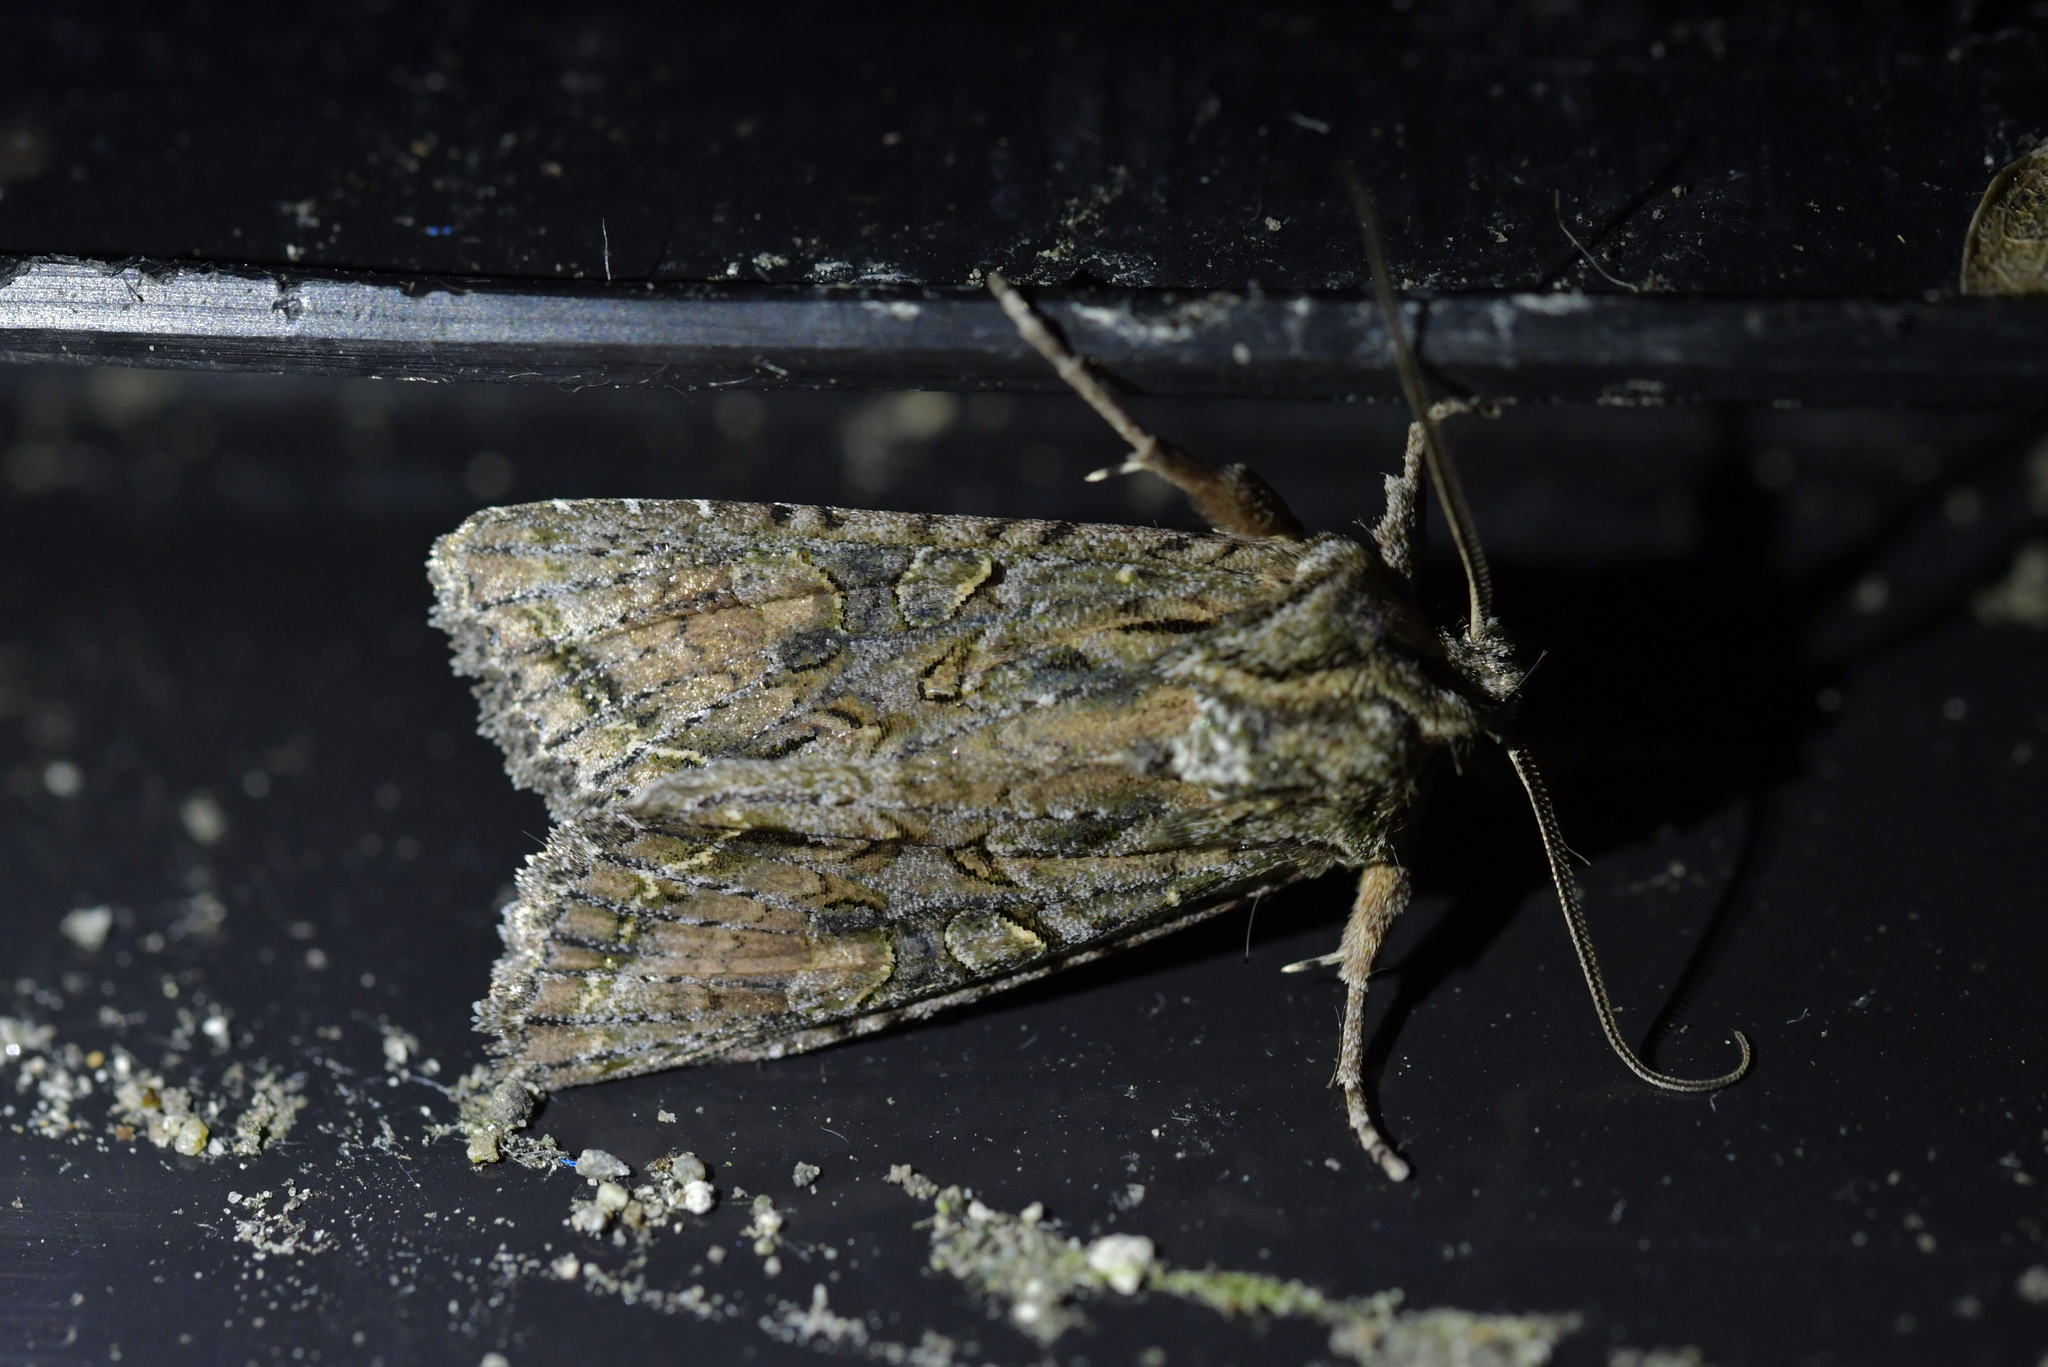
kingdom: Animalia
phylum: Arthropoda
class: Insecta
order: Lepidoptera
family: Noctuidae
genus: Ichneutica
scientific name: Ichneutica mutans
